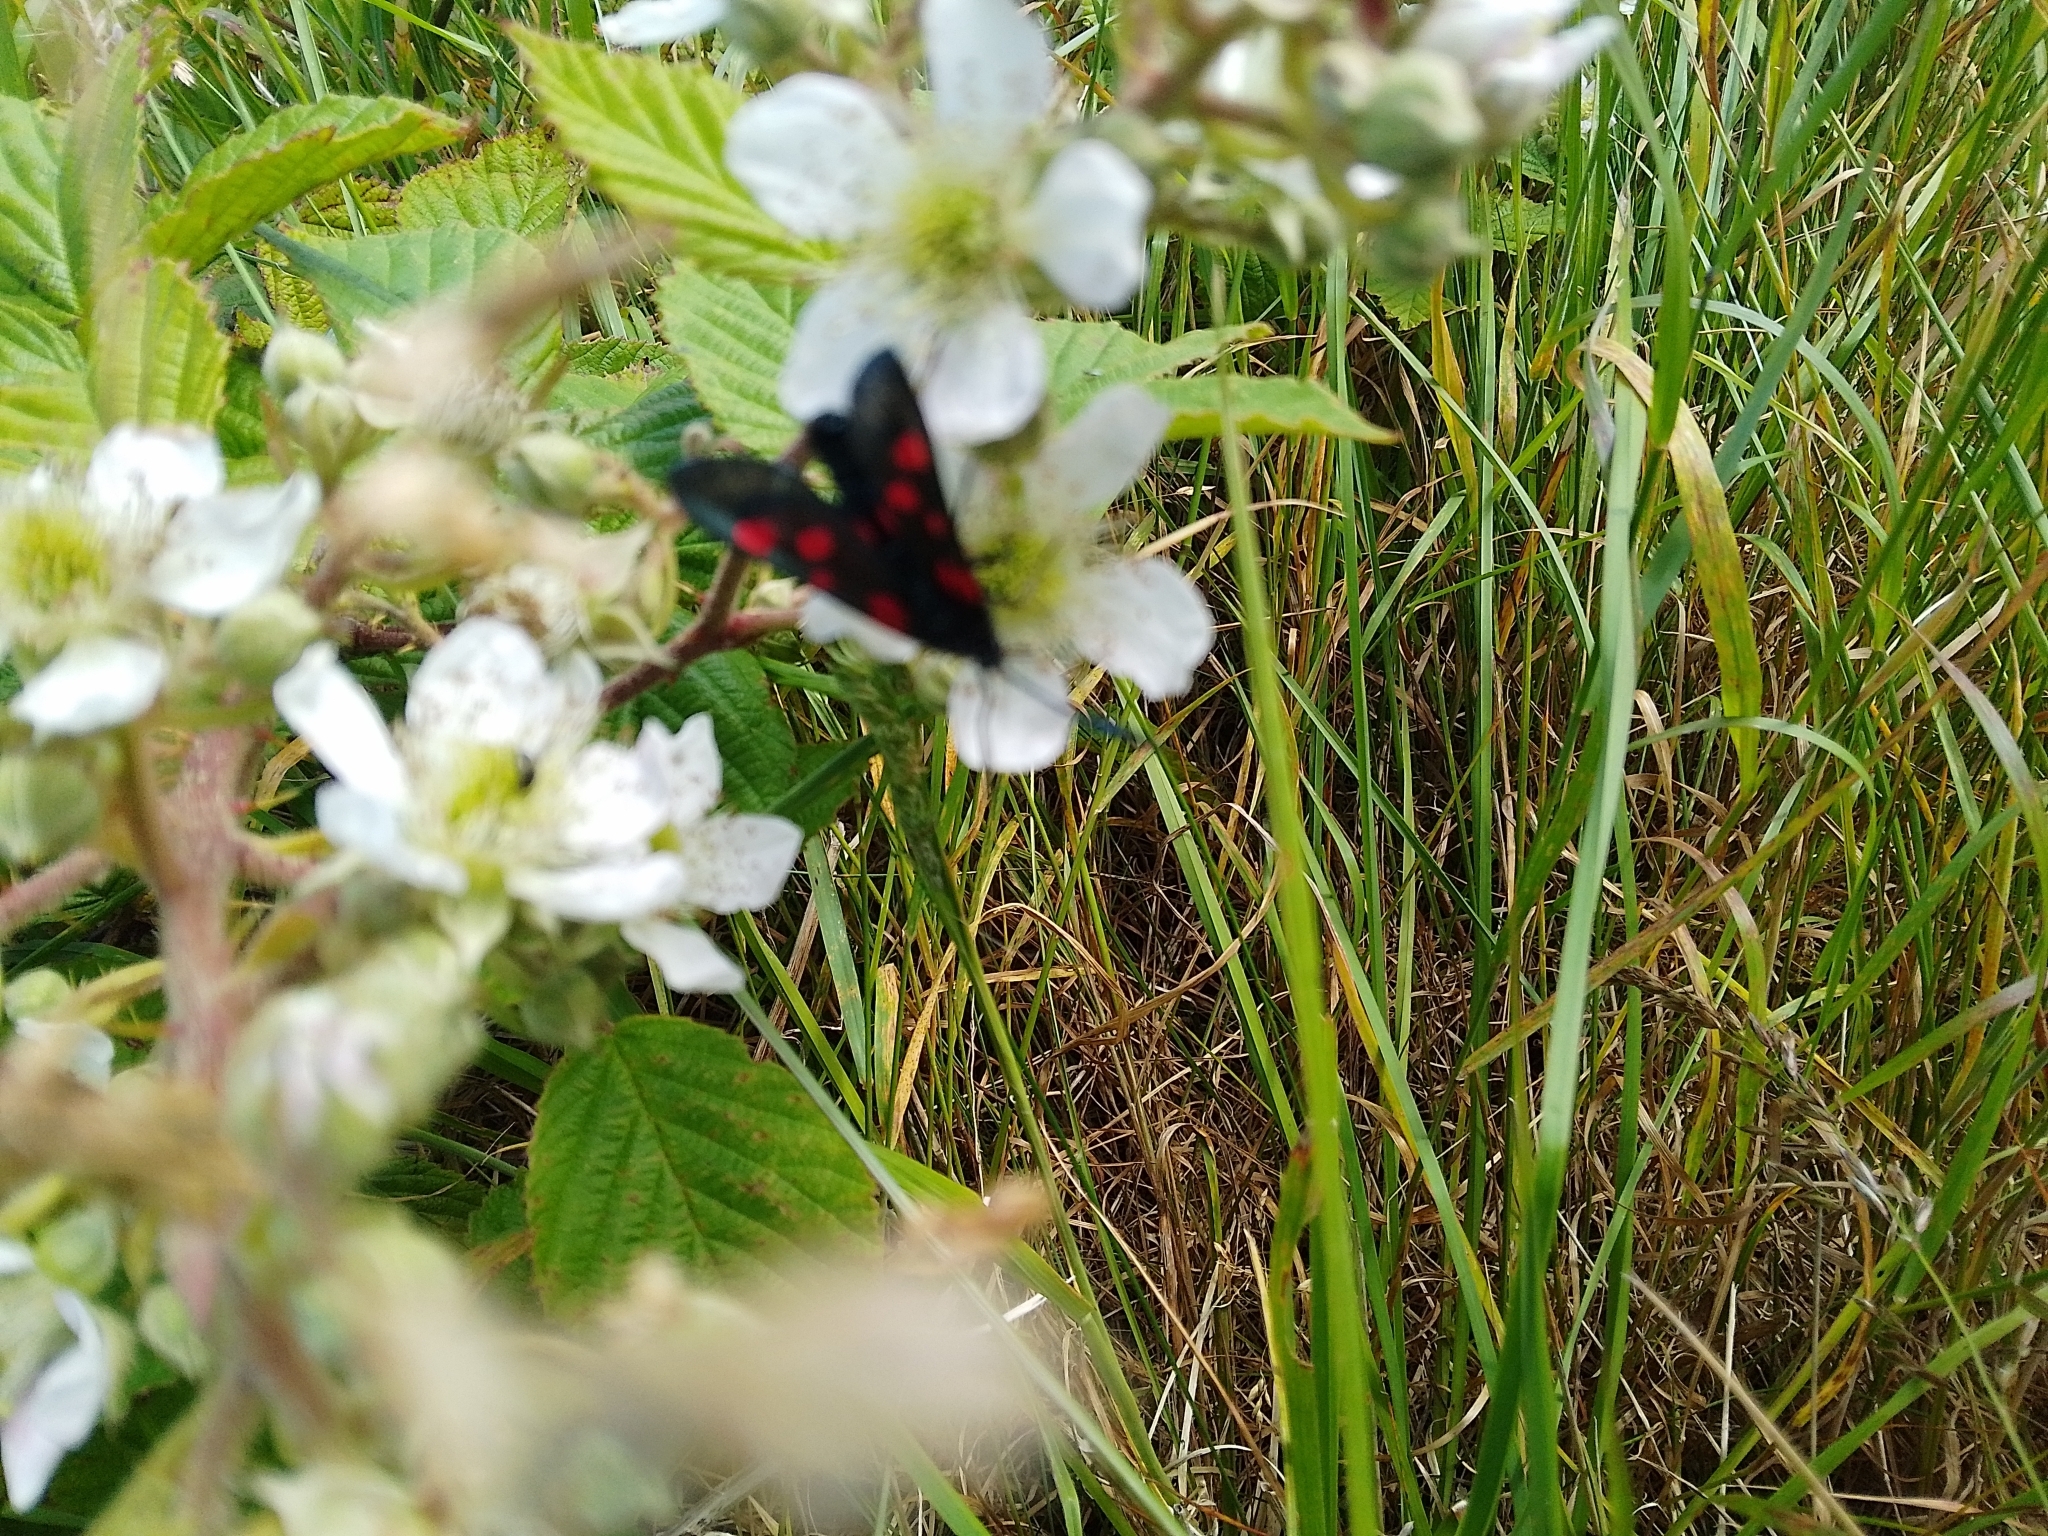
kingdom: Animalia
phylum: Arthropoda
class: Insecta
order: Lepidoptera
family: Zygaenidae
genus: Zygaena
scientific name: Zygaena lonicerae
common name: Narrow-bordered five-spot burnet
